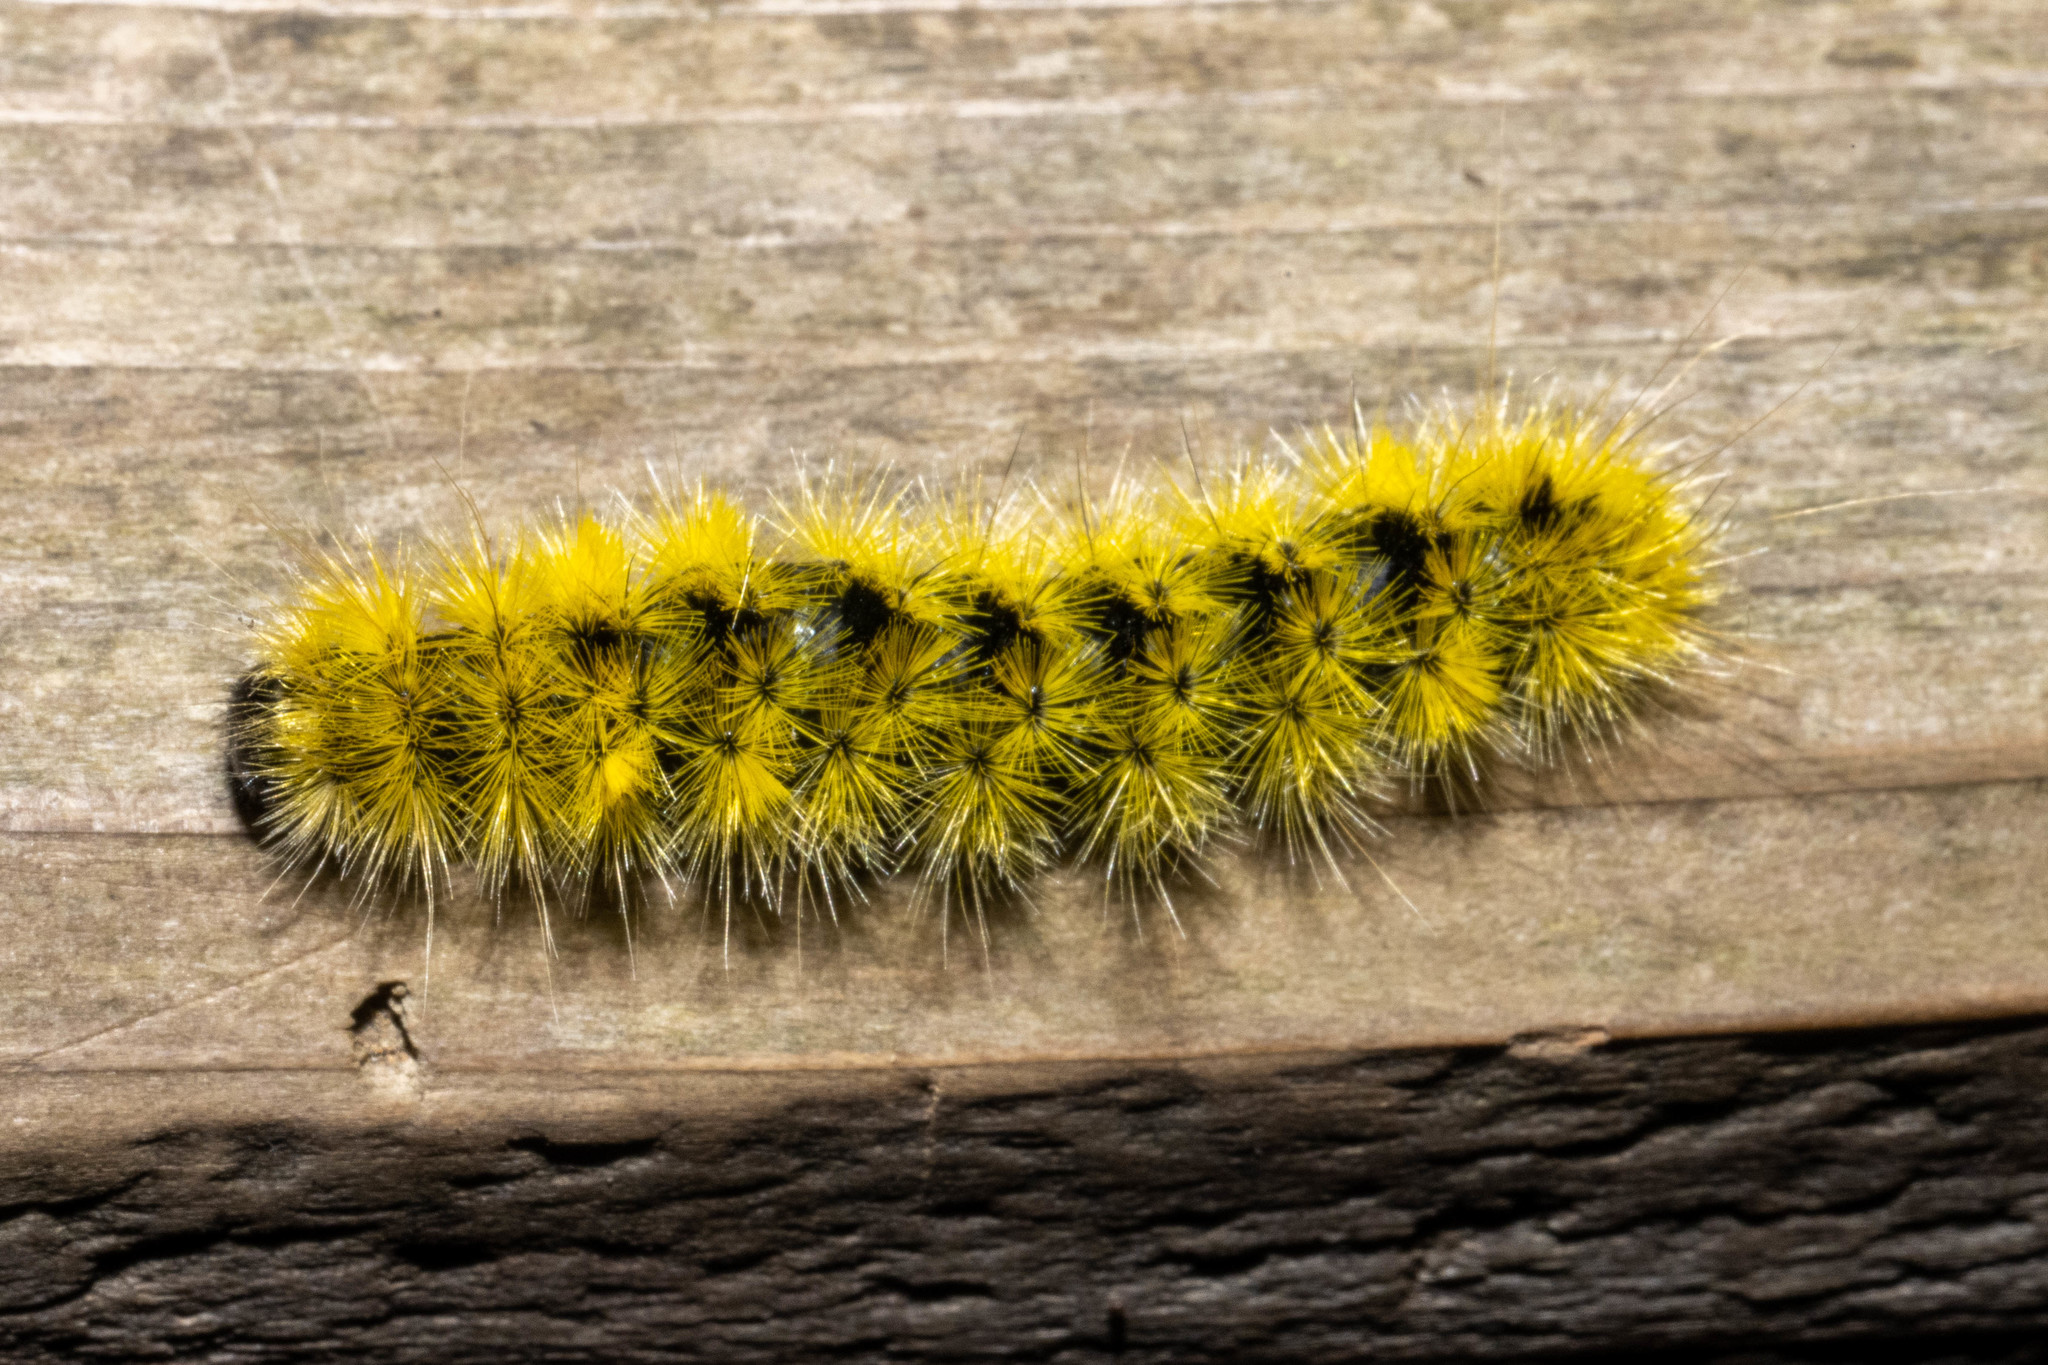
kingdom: Animalia
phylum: Arthropoda
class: Insecta
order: Lepidoptera
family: Erebidae
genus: Lophocampa
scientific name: Lophocampa argentata
